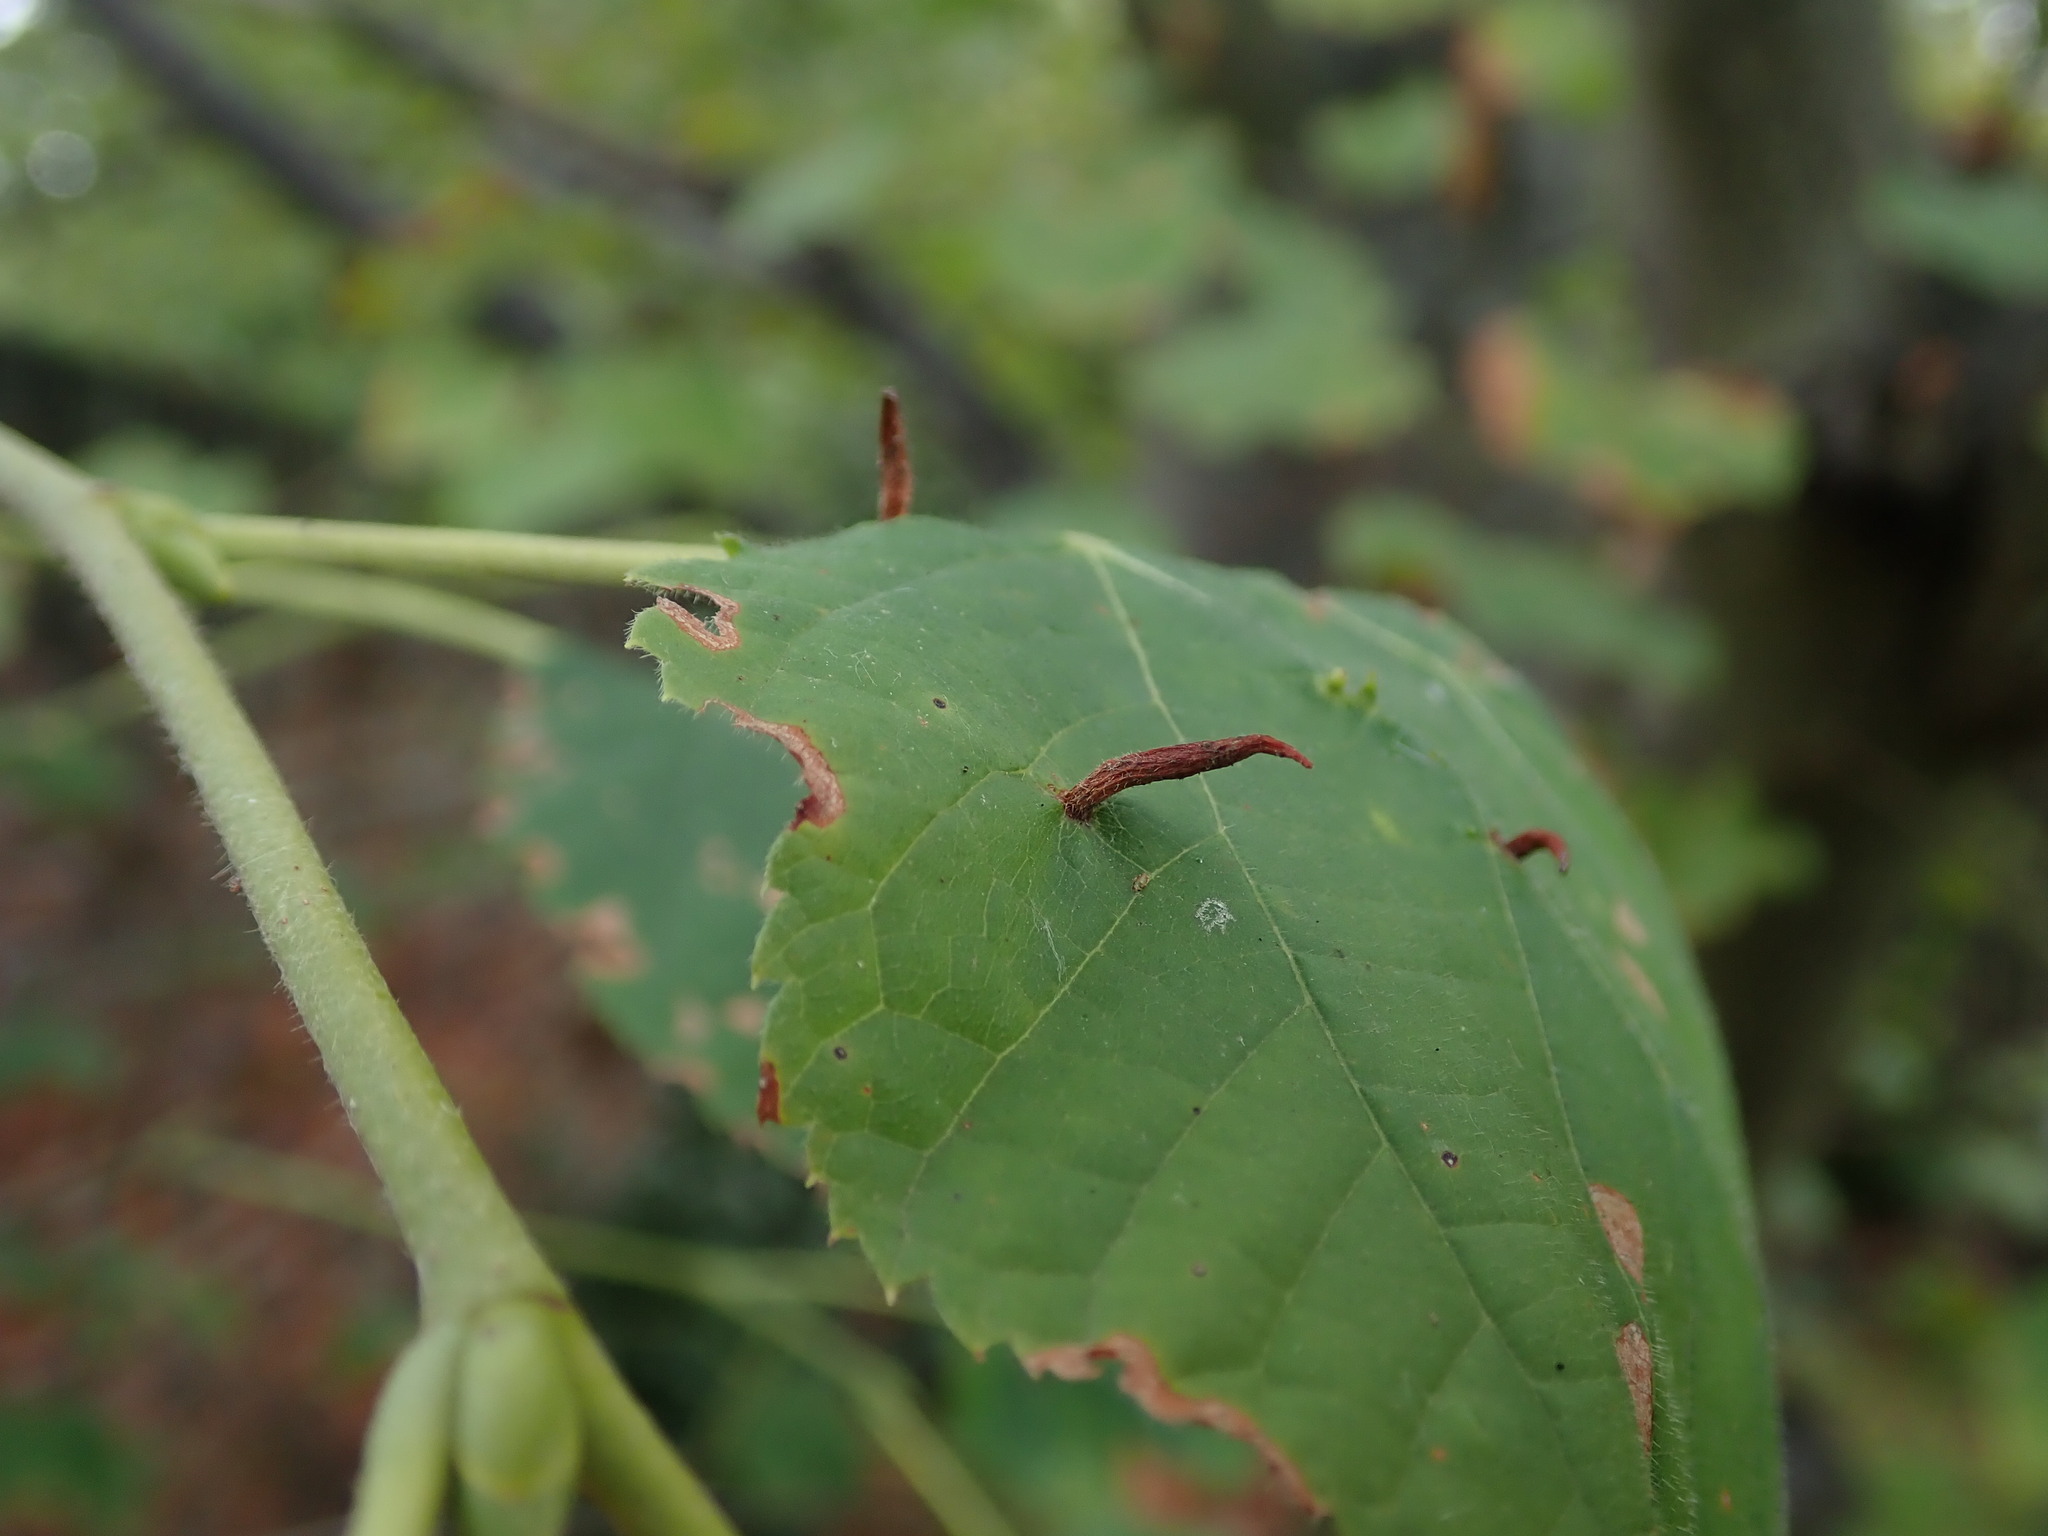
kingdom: Animalia
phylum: Arthropoda
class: Arachnida
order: Trombidiformes
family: Eriophyidae
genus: Eriophyes
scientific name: Eriophyes tiliae
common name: Red nail gall mite
